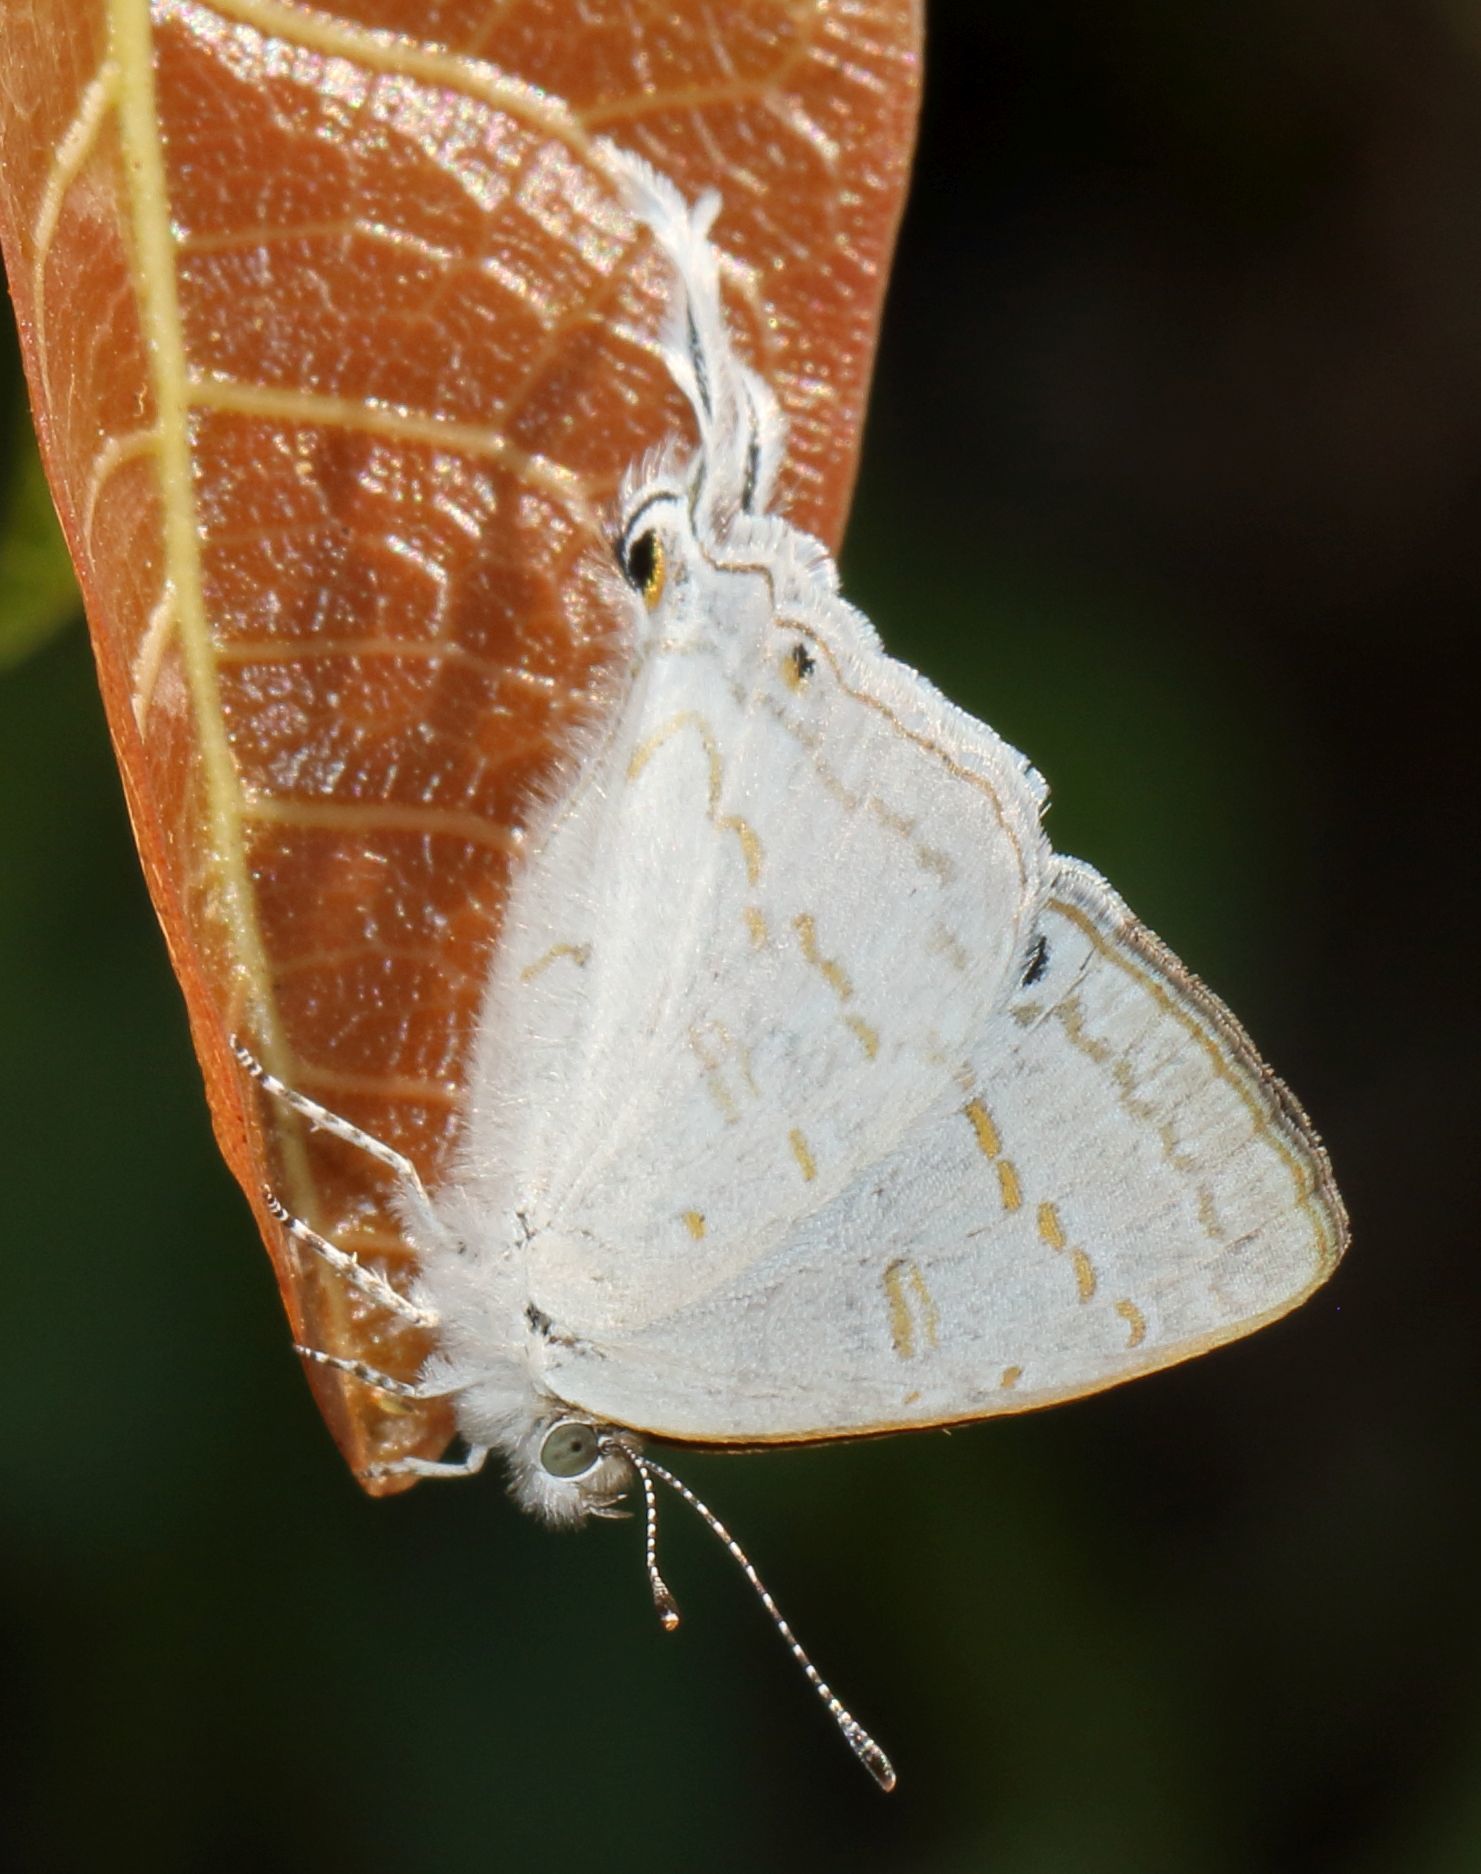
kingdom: Animalia
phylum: Arthropoda
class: Insecta
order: Lepidoptera
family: Lycaenidae
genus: Leptomyrina
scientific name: Leptomyrina hirundo
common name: Tailed black-eye
